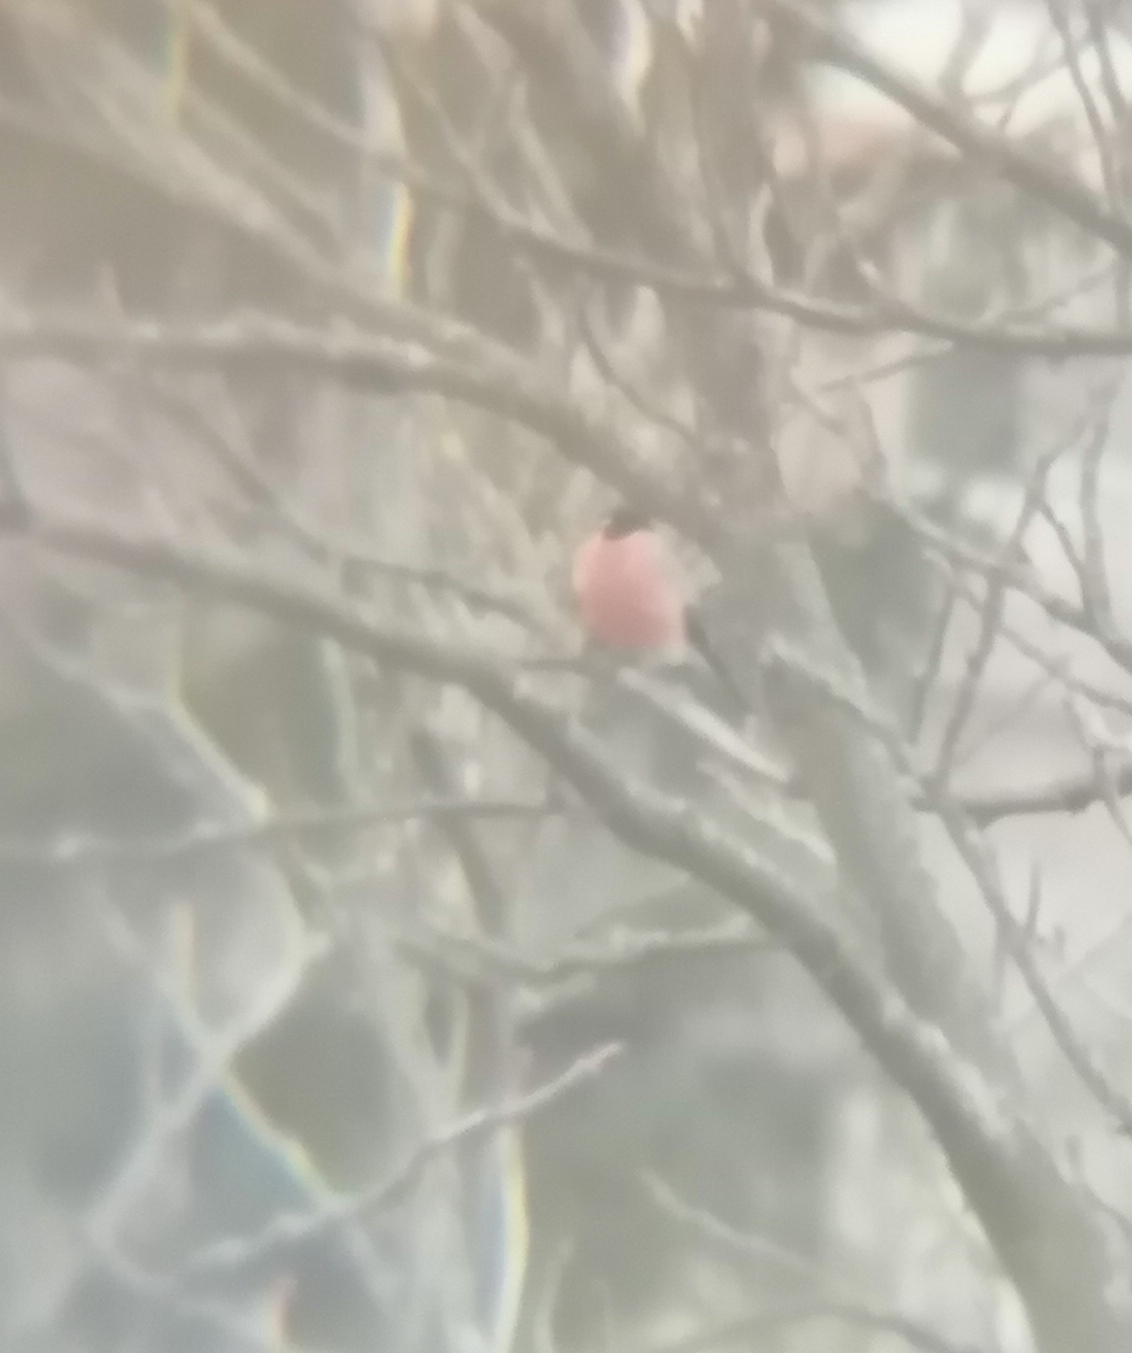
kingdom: Animalia
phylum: Chordata
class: Aves
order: Passeriformes
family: Fringillidae
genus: Pyrrhula
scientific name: Pyrrhula pyrrhula
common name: Eurasian bullfinch
